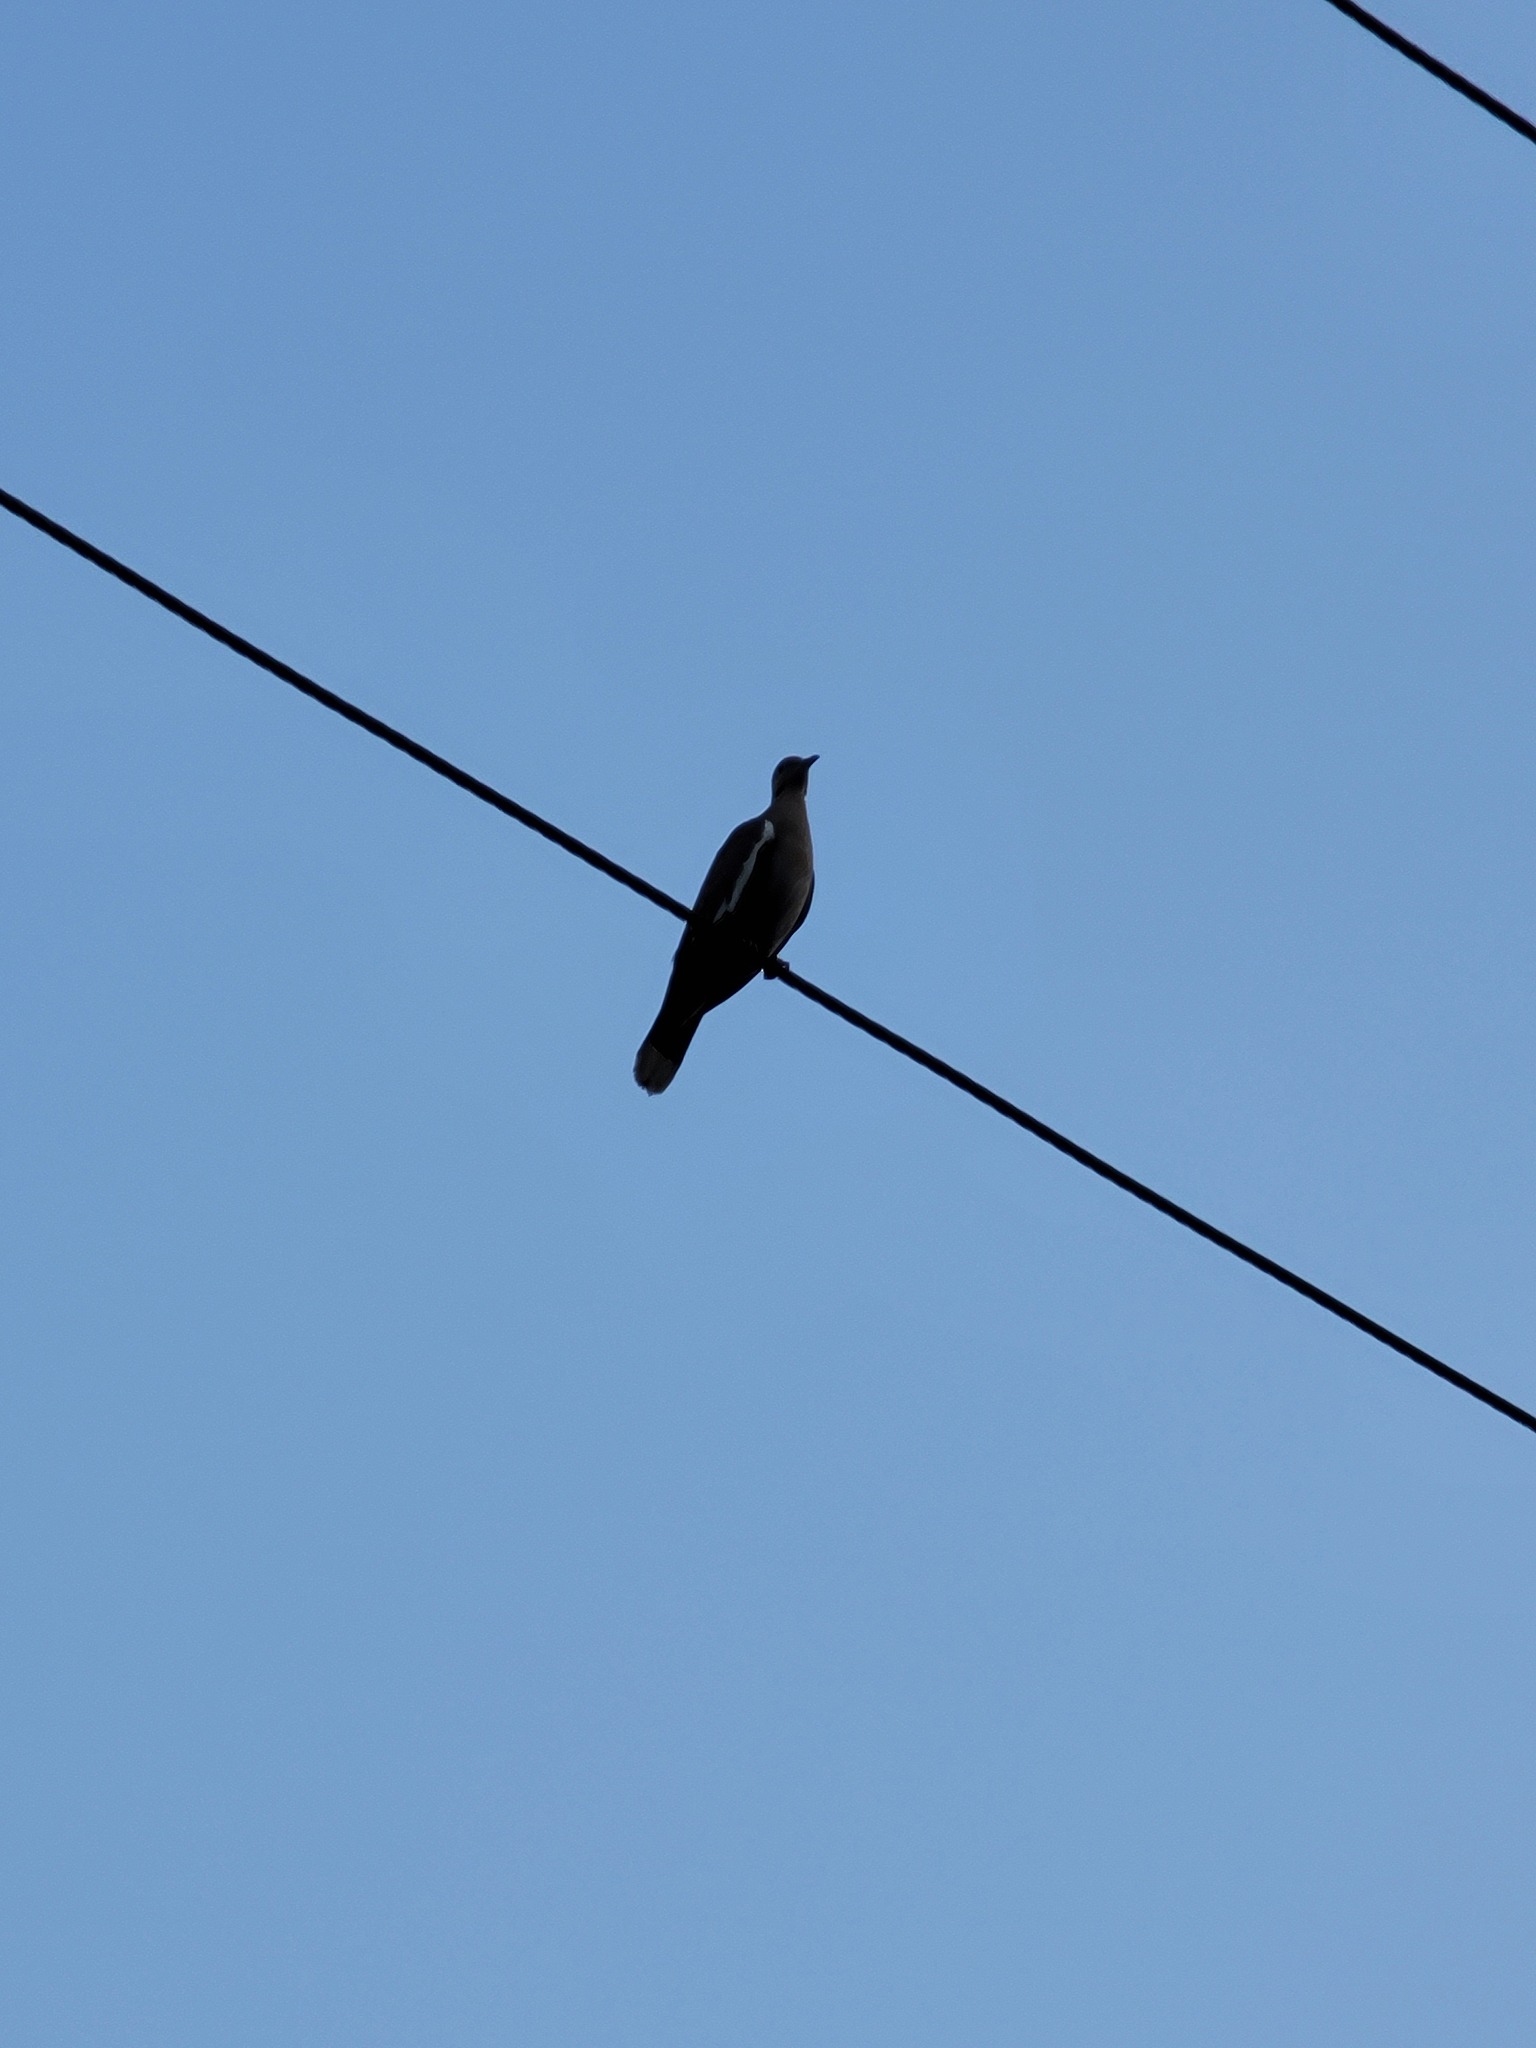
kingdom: Animalia
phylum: Chordata
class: Aves
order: Columbiformes
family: Columbidae
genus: Zenaida
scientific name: Zenaida asiatica
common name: White-winged dove
